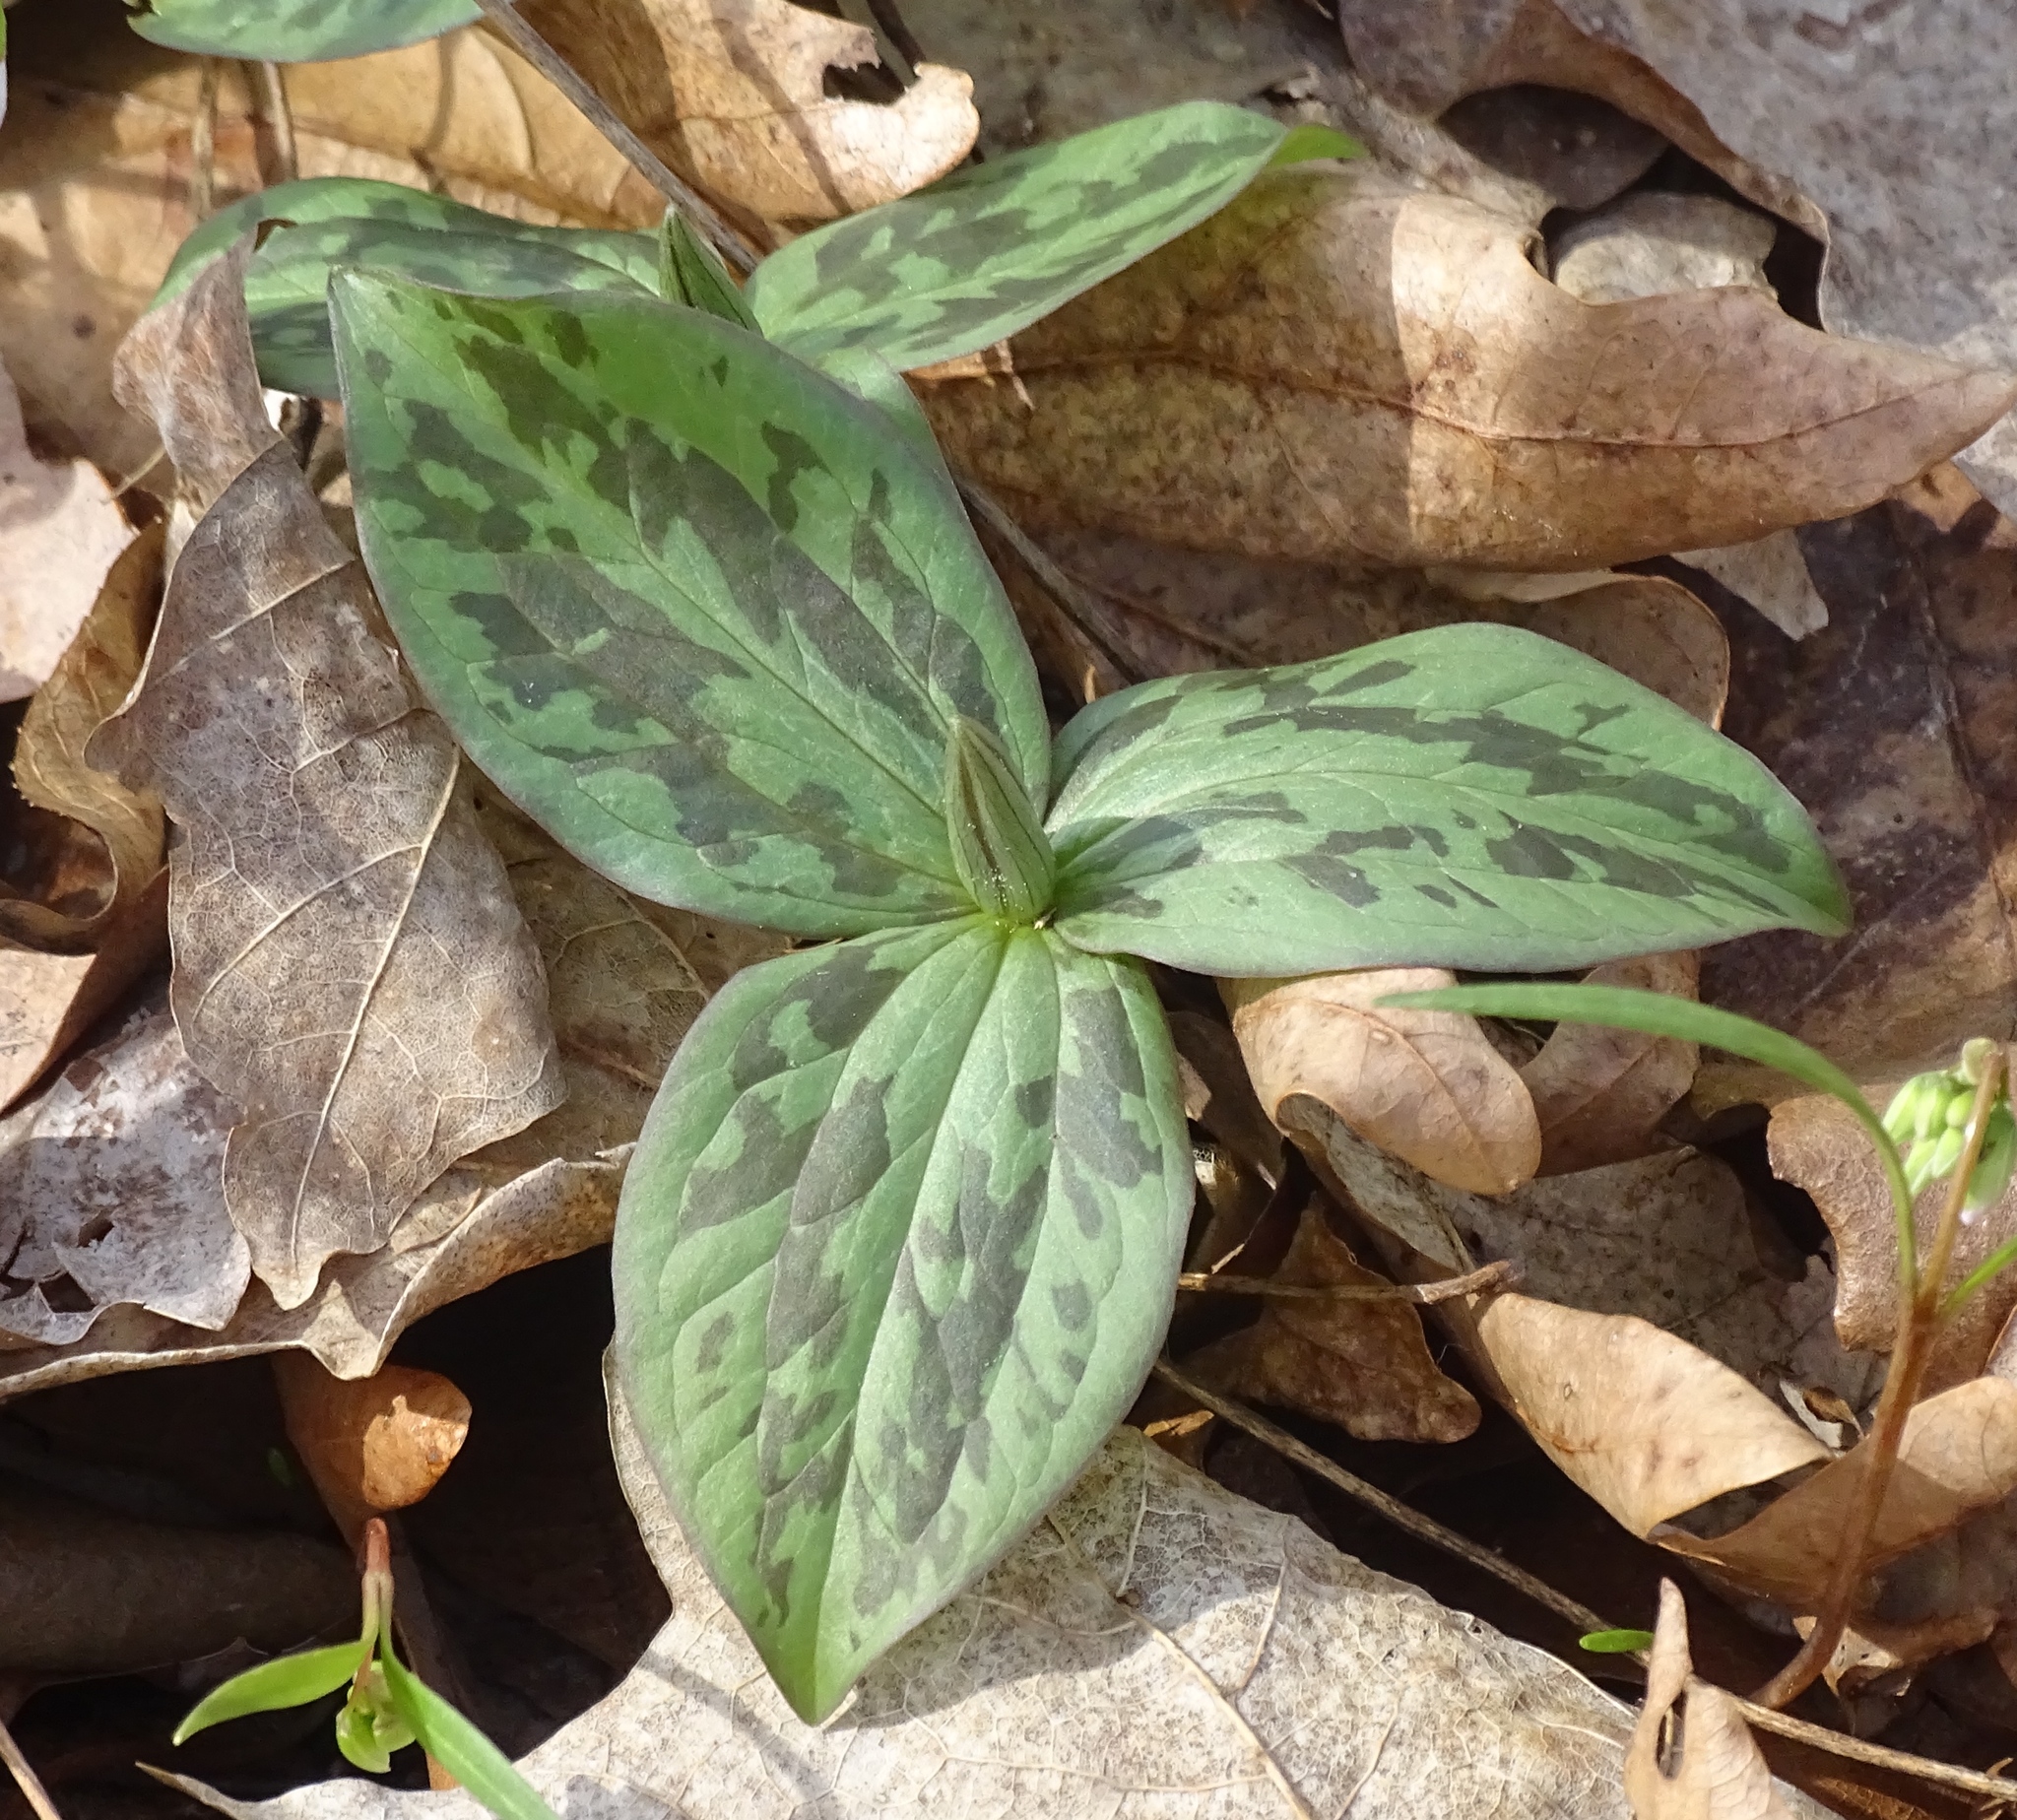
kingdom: Plantae
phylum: Tracheophyta
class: Liliopsida
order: Liliales
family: Melanthiaceae
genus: Trillium
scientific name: Trillium sessile
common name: Sessile trillium
